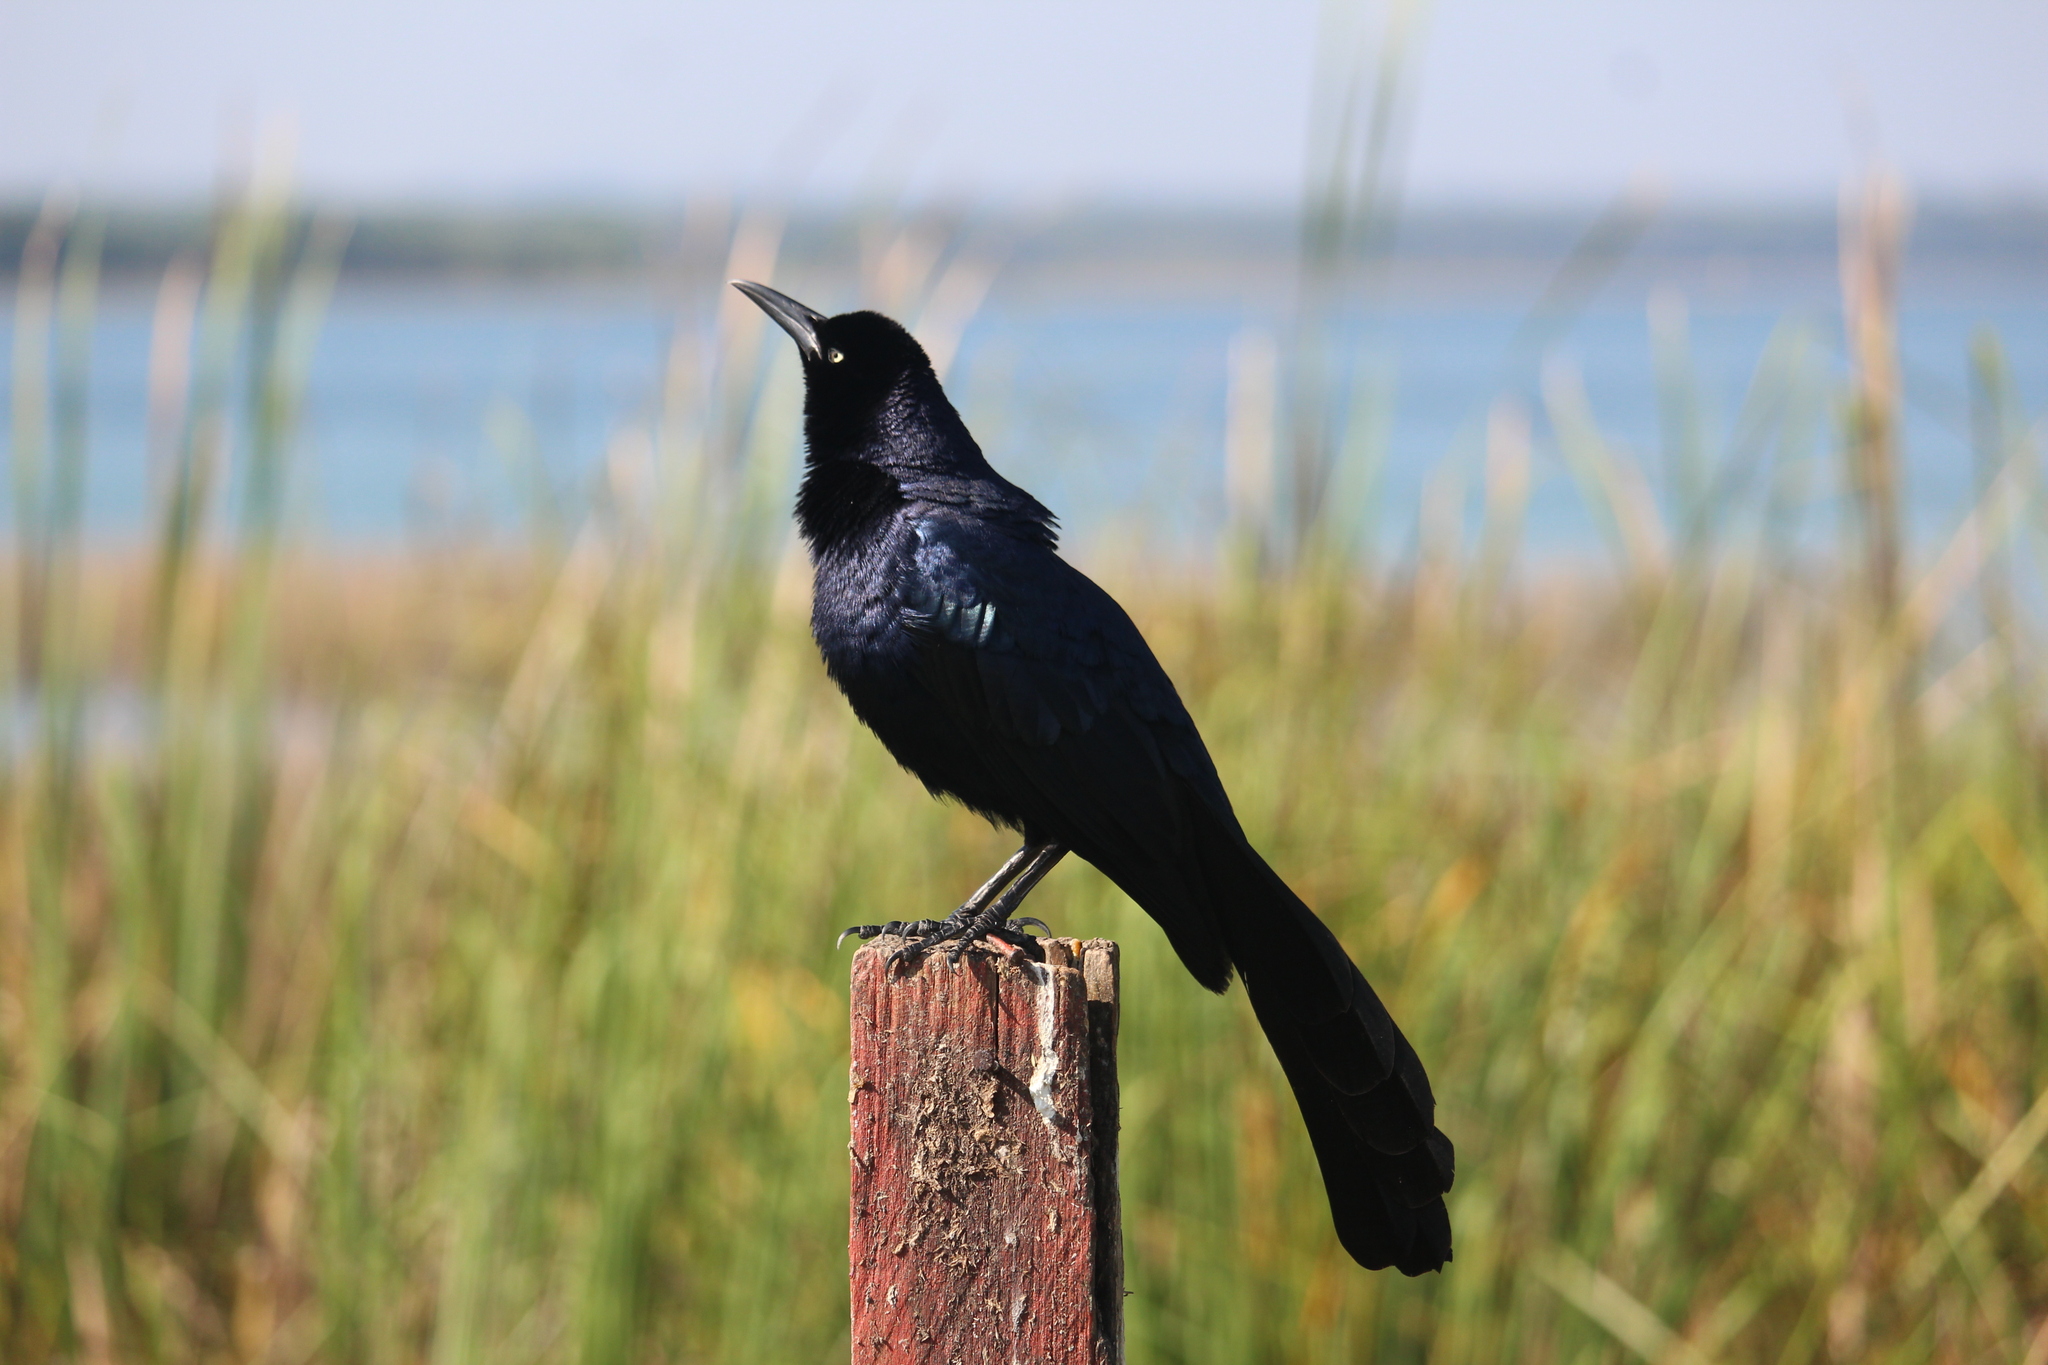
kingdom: Animalia
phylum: Chordata
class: Aves
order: Passeriformes
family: Icteridae
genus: Quiscalus
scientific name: Quiscalus mexicanus
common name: Great-tailed grackle
